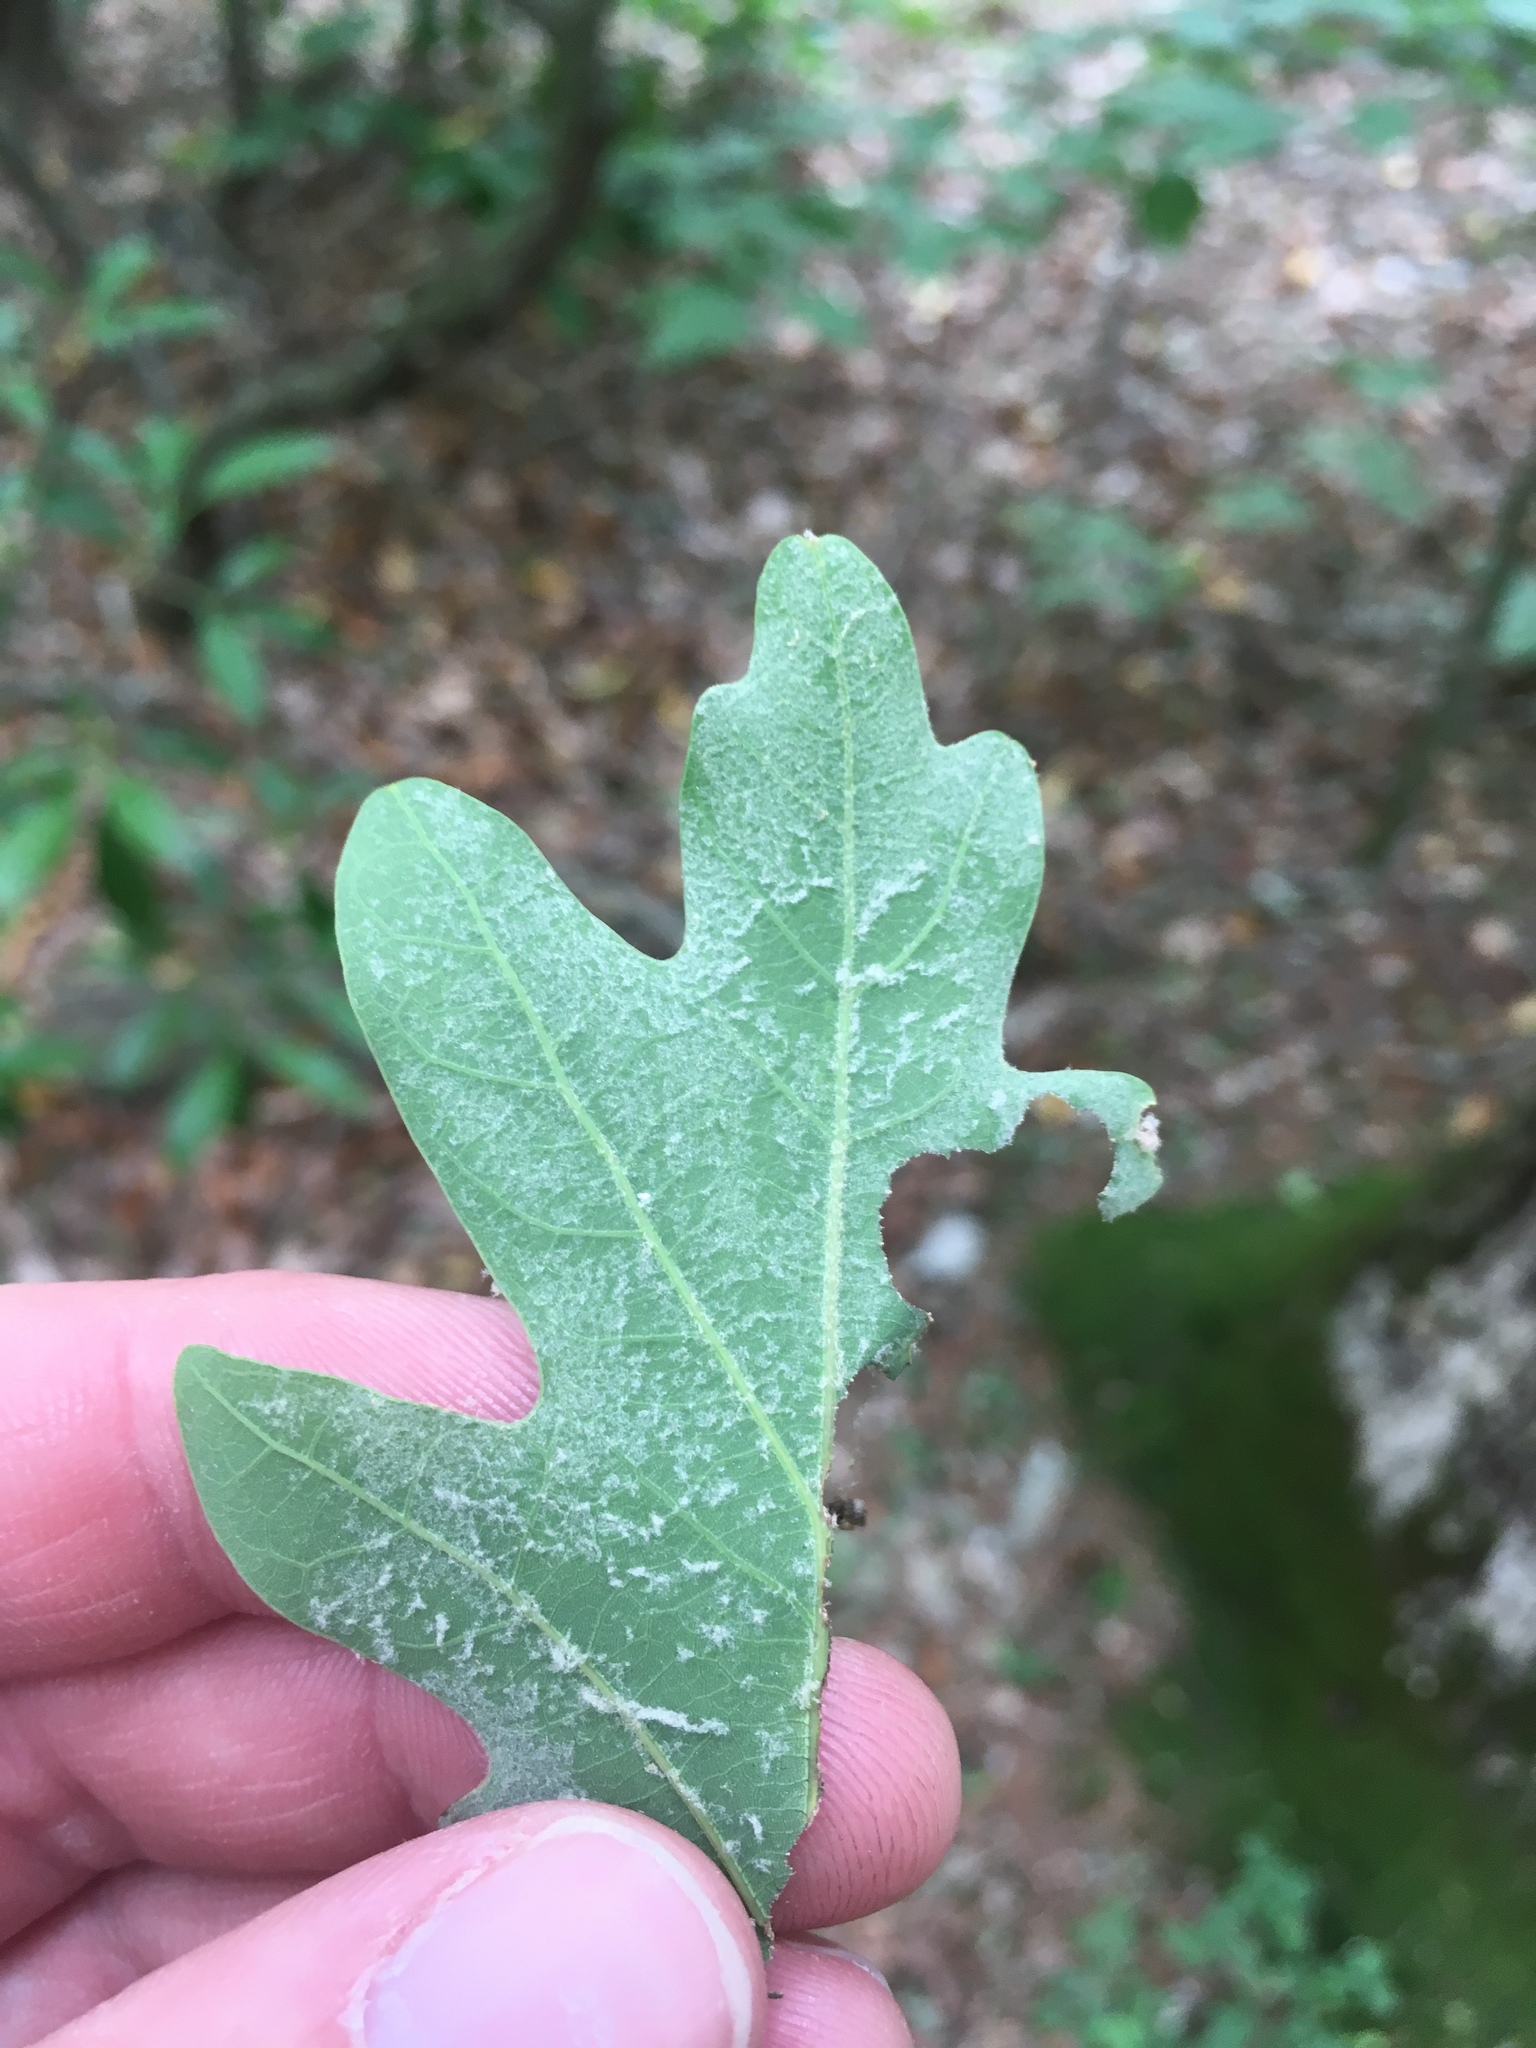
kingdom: Plantae
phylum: Tracheophyta
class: Magnoliopsida
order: Fagales
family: Fagaceae
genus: Quercus
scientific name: Quercus alba
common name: White oak
